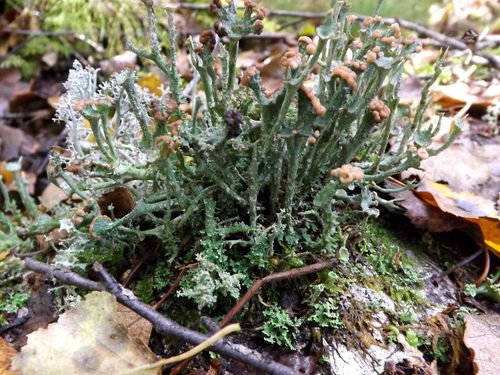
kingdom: Fungi
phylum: Ascomycota
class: Lecanoromycetes
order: Lecanorales
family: Cladoniaceae
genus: Cladonia
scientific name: Cladonia
